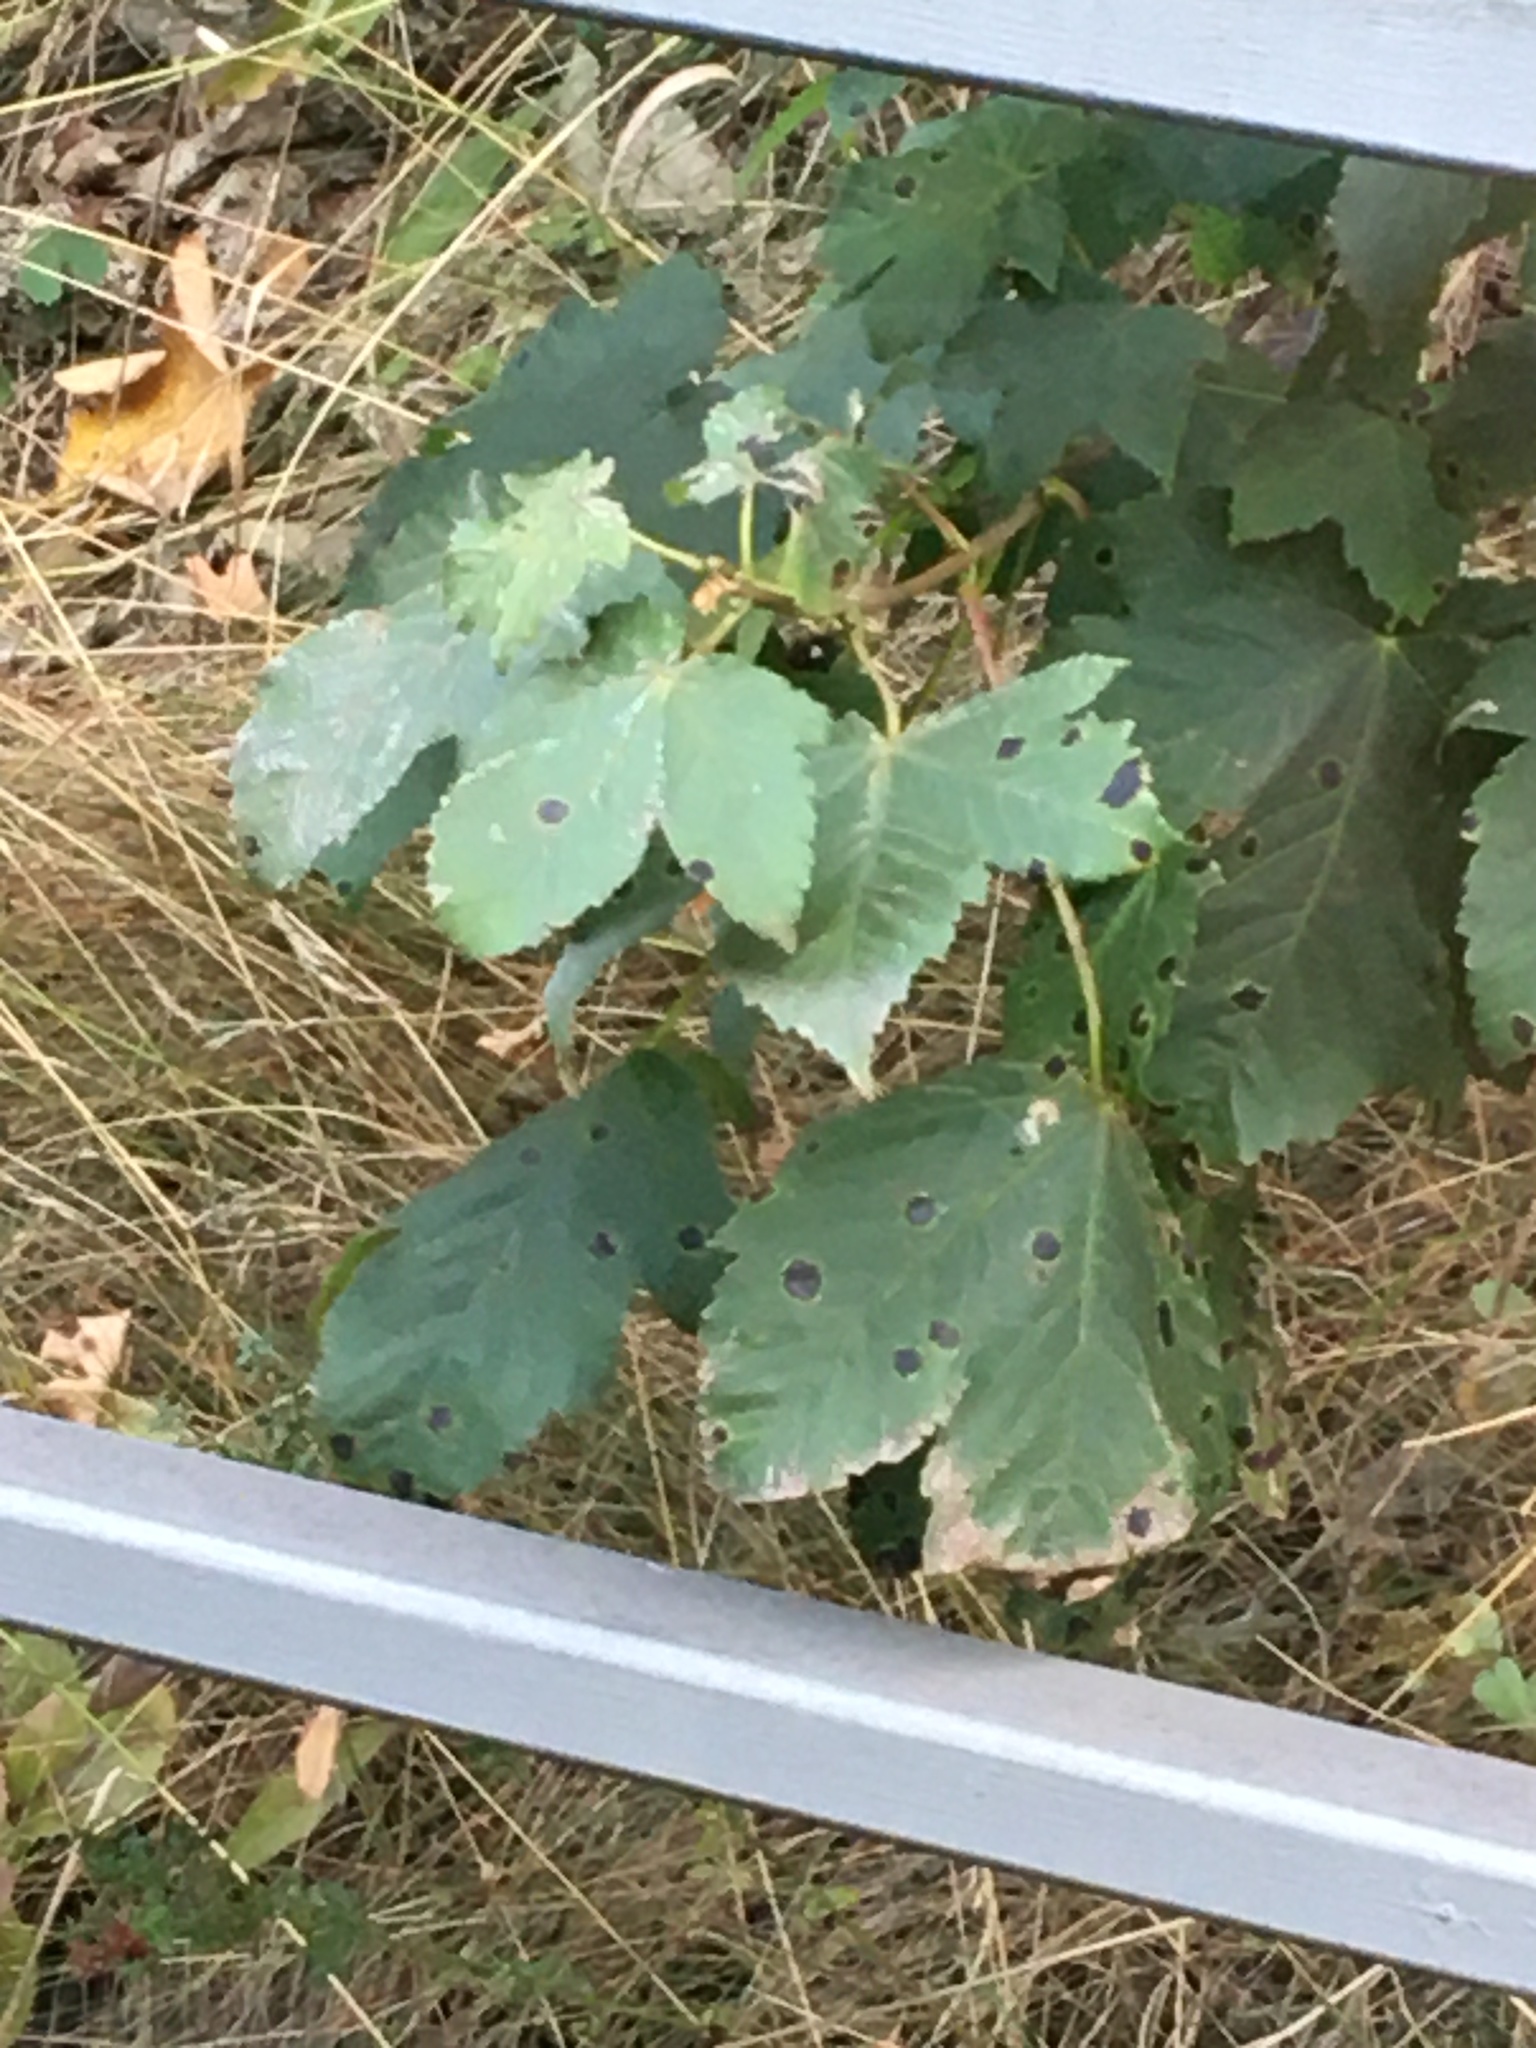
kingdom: Fungi
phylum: Ascomycota
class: Leotiomycetes
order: Rhytismatales
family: Rhytismataceae
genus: Rhytisma
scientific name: Rhytisma acerinum
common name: European tar spot
